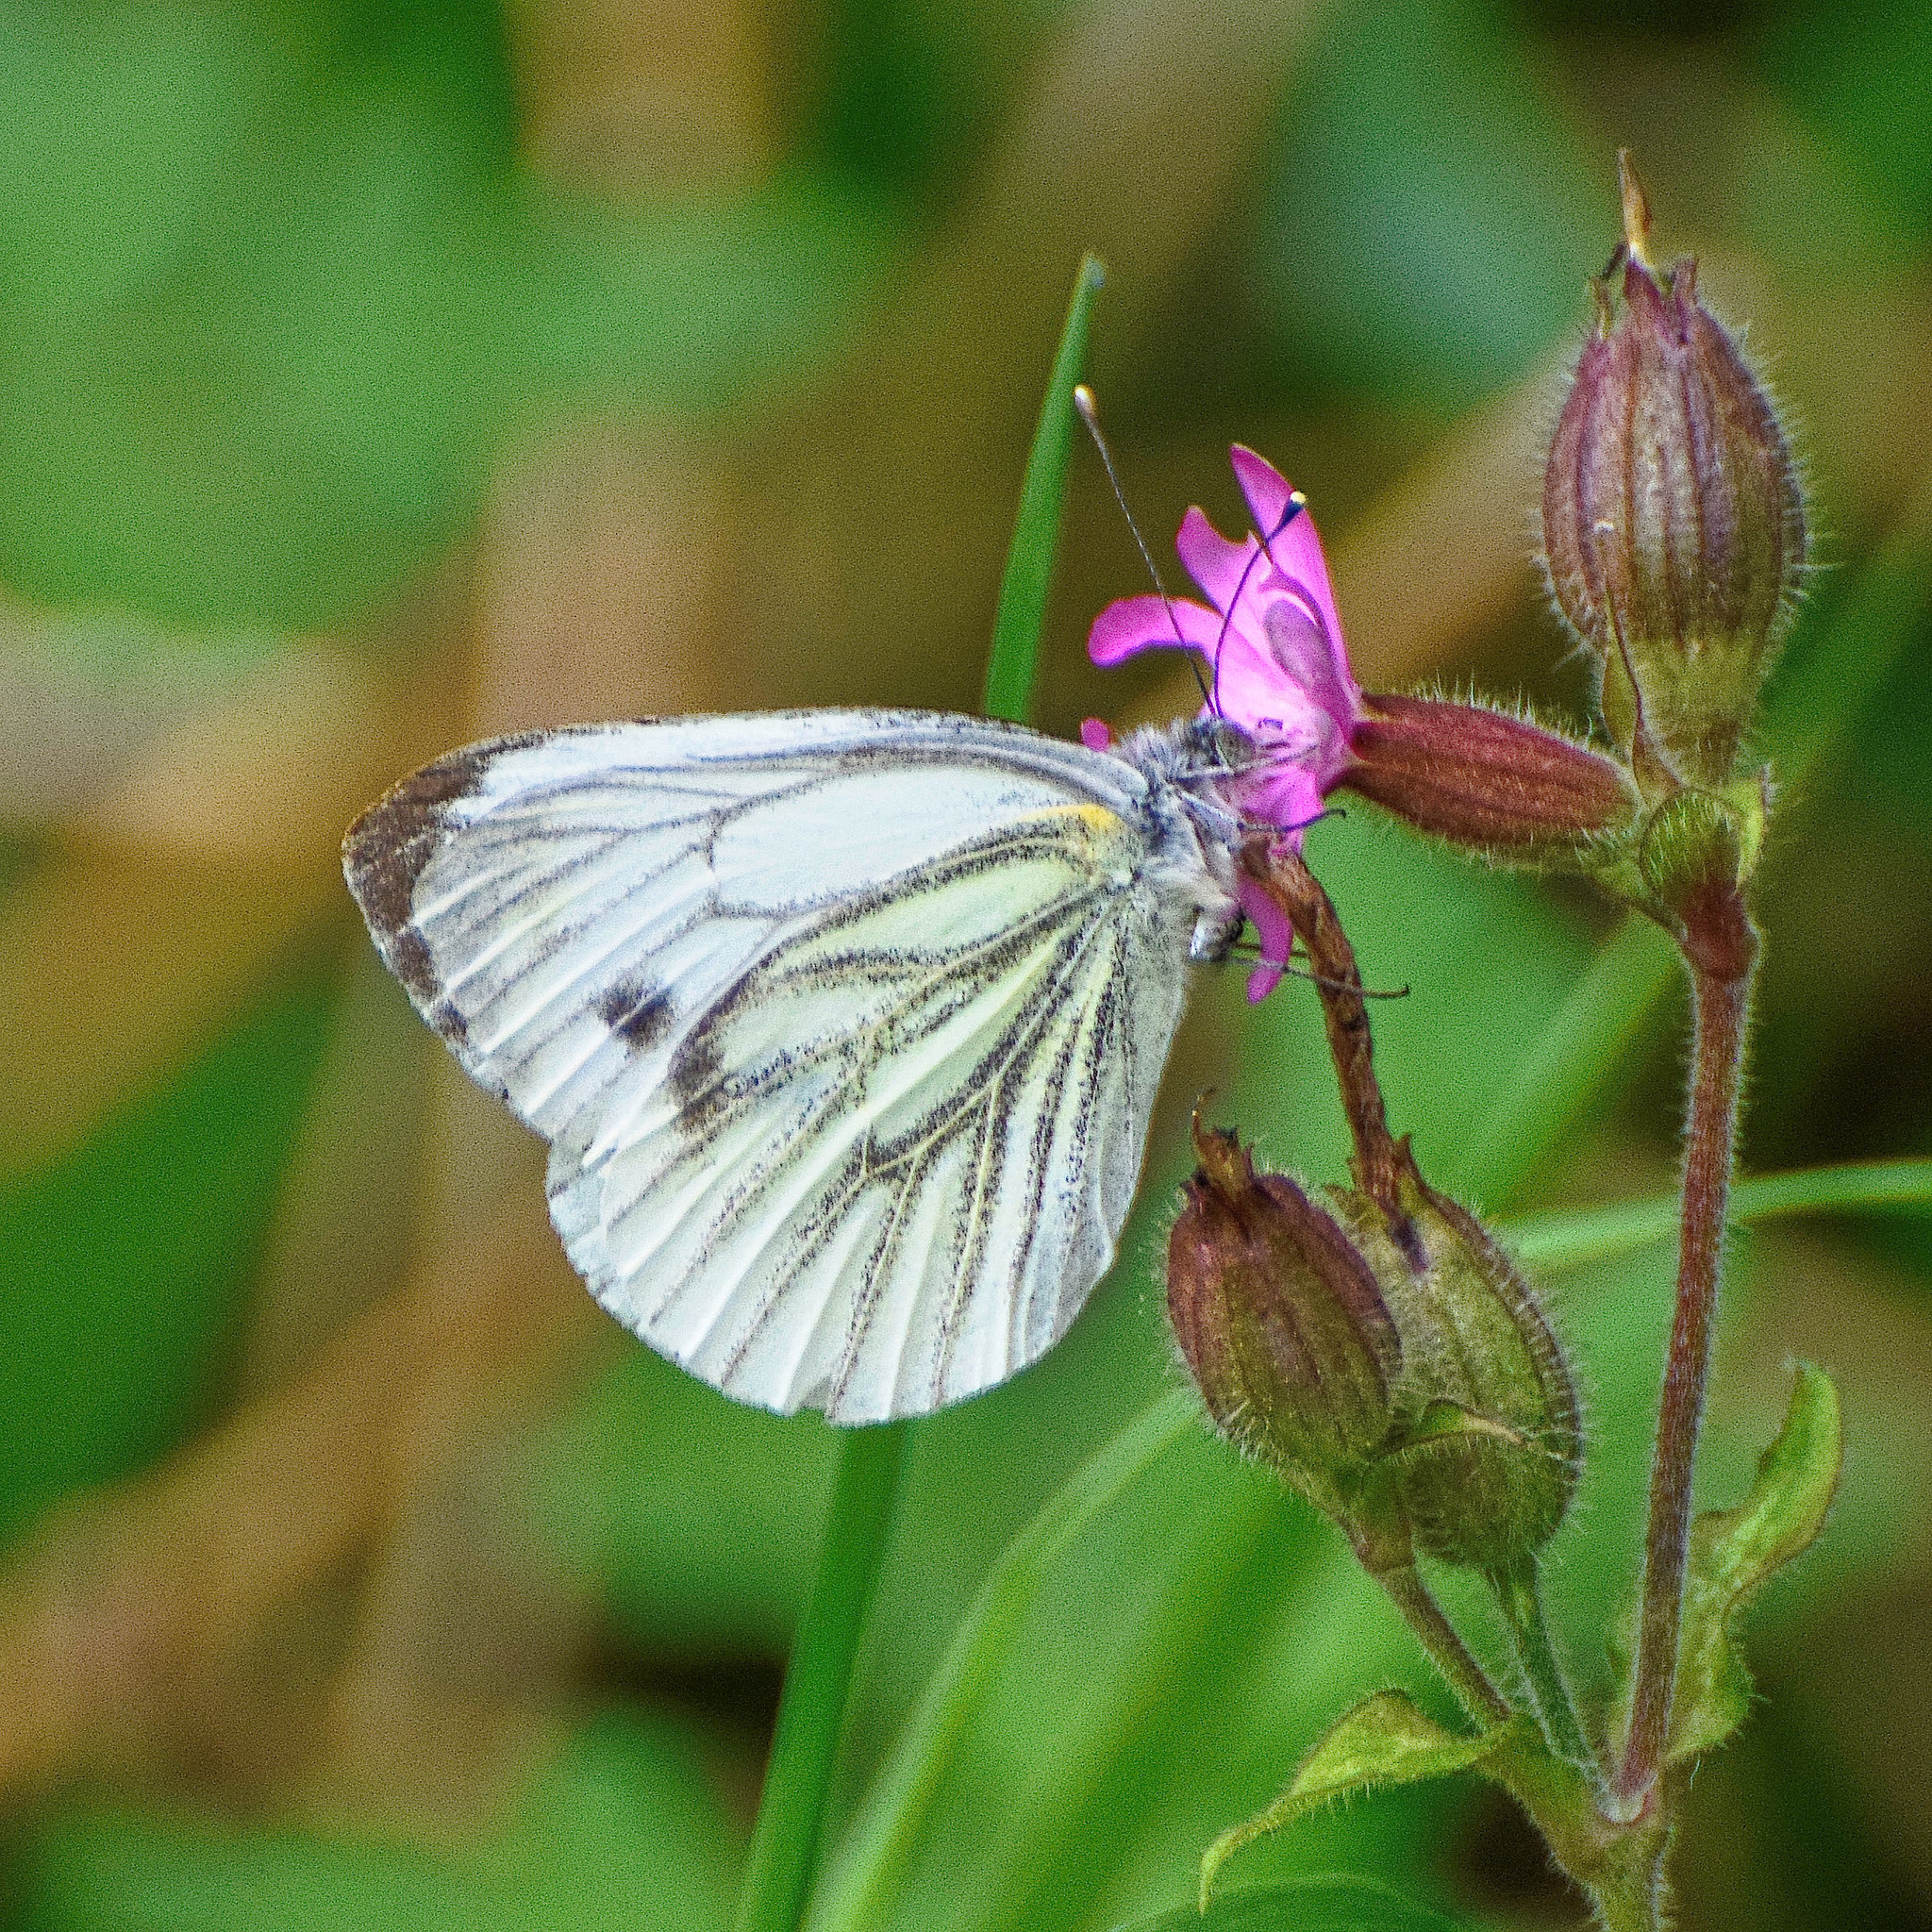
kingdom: Animalia
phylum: Arthropoda
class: Insecta
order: Lepidoptera
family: Pieridae
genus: Pieris
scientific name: Pieris napi
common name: Green-veined white
